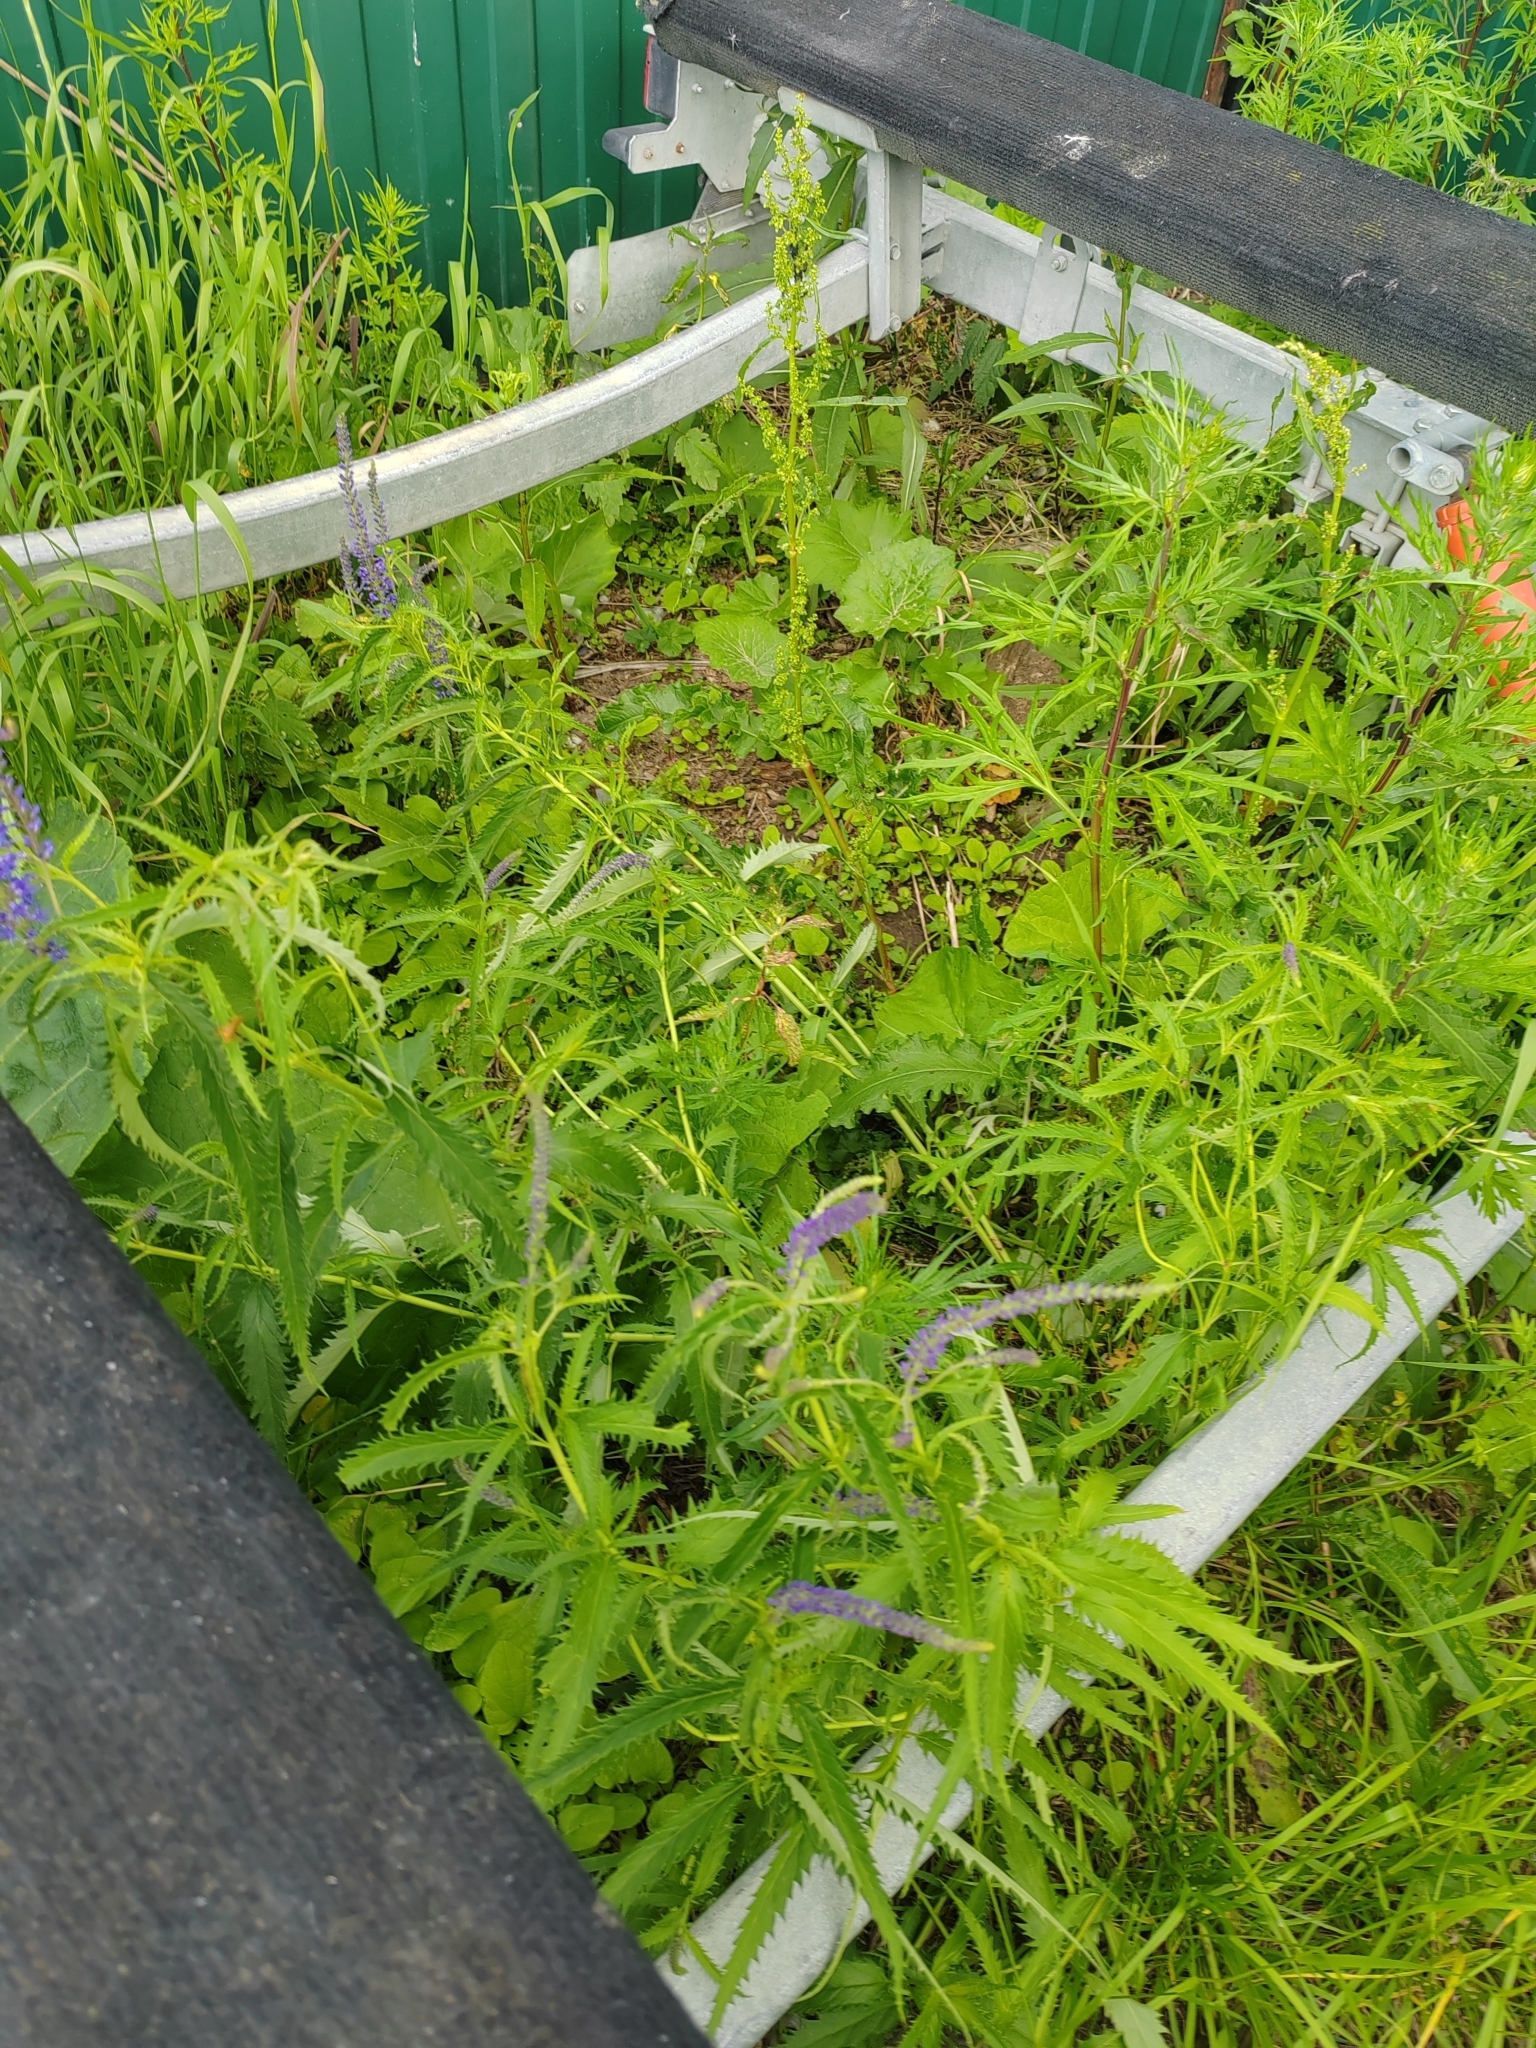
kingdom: Plantae
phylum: Tracheophyta
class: Magnoliopsida
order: Lamiales
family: Plantaginaceae
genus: Veronica
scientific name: Veronica longifolia
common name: Garden speedwell
